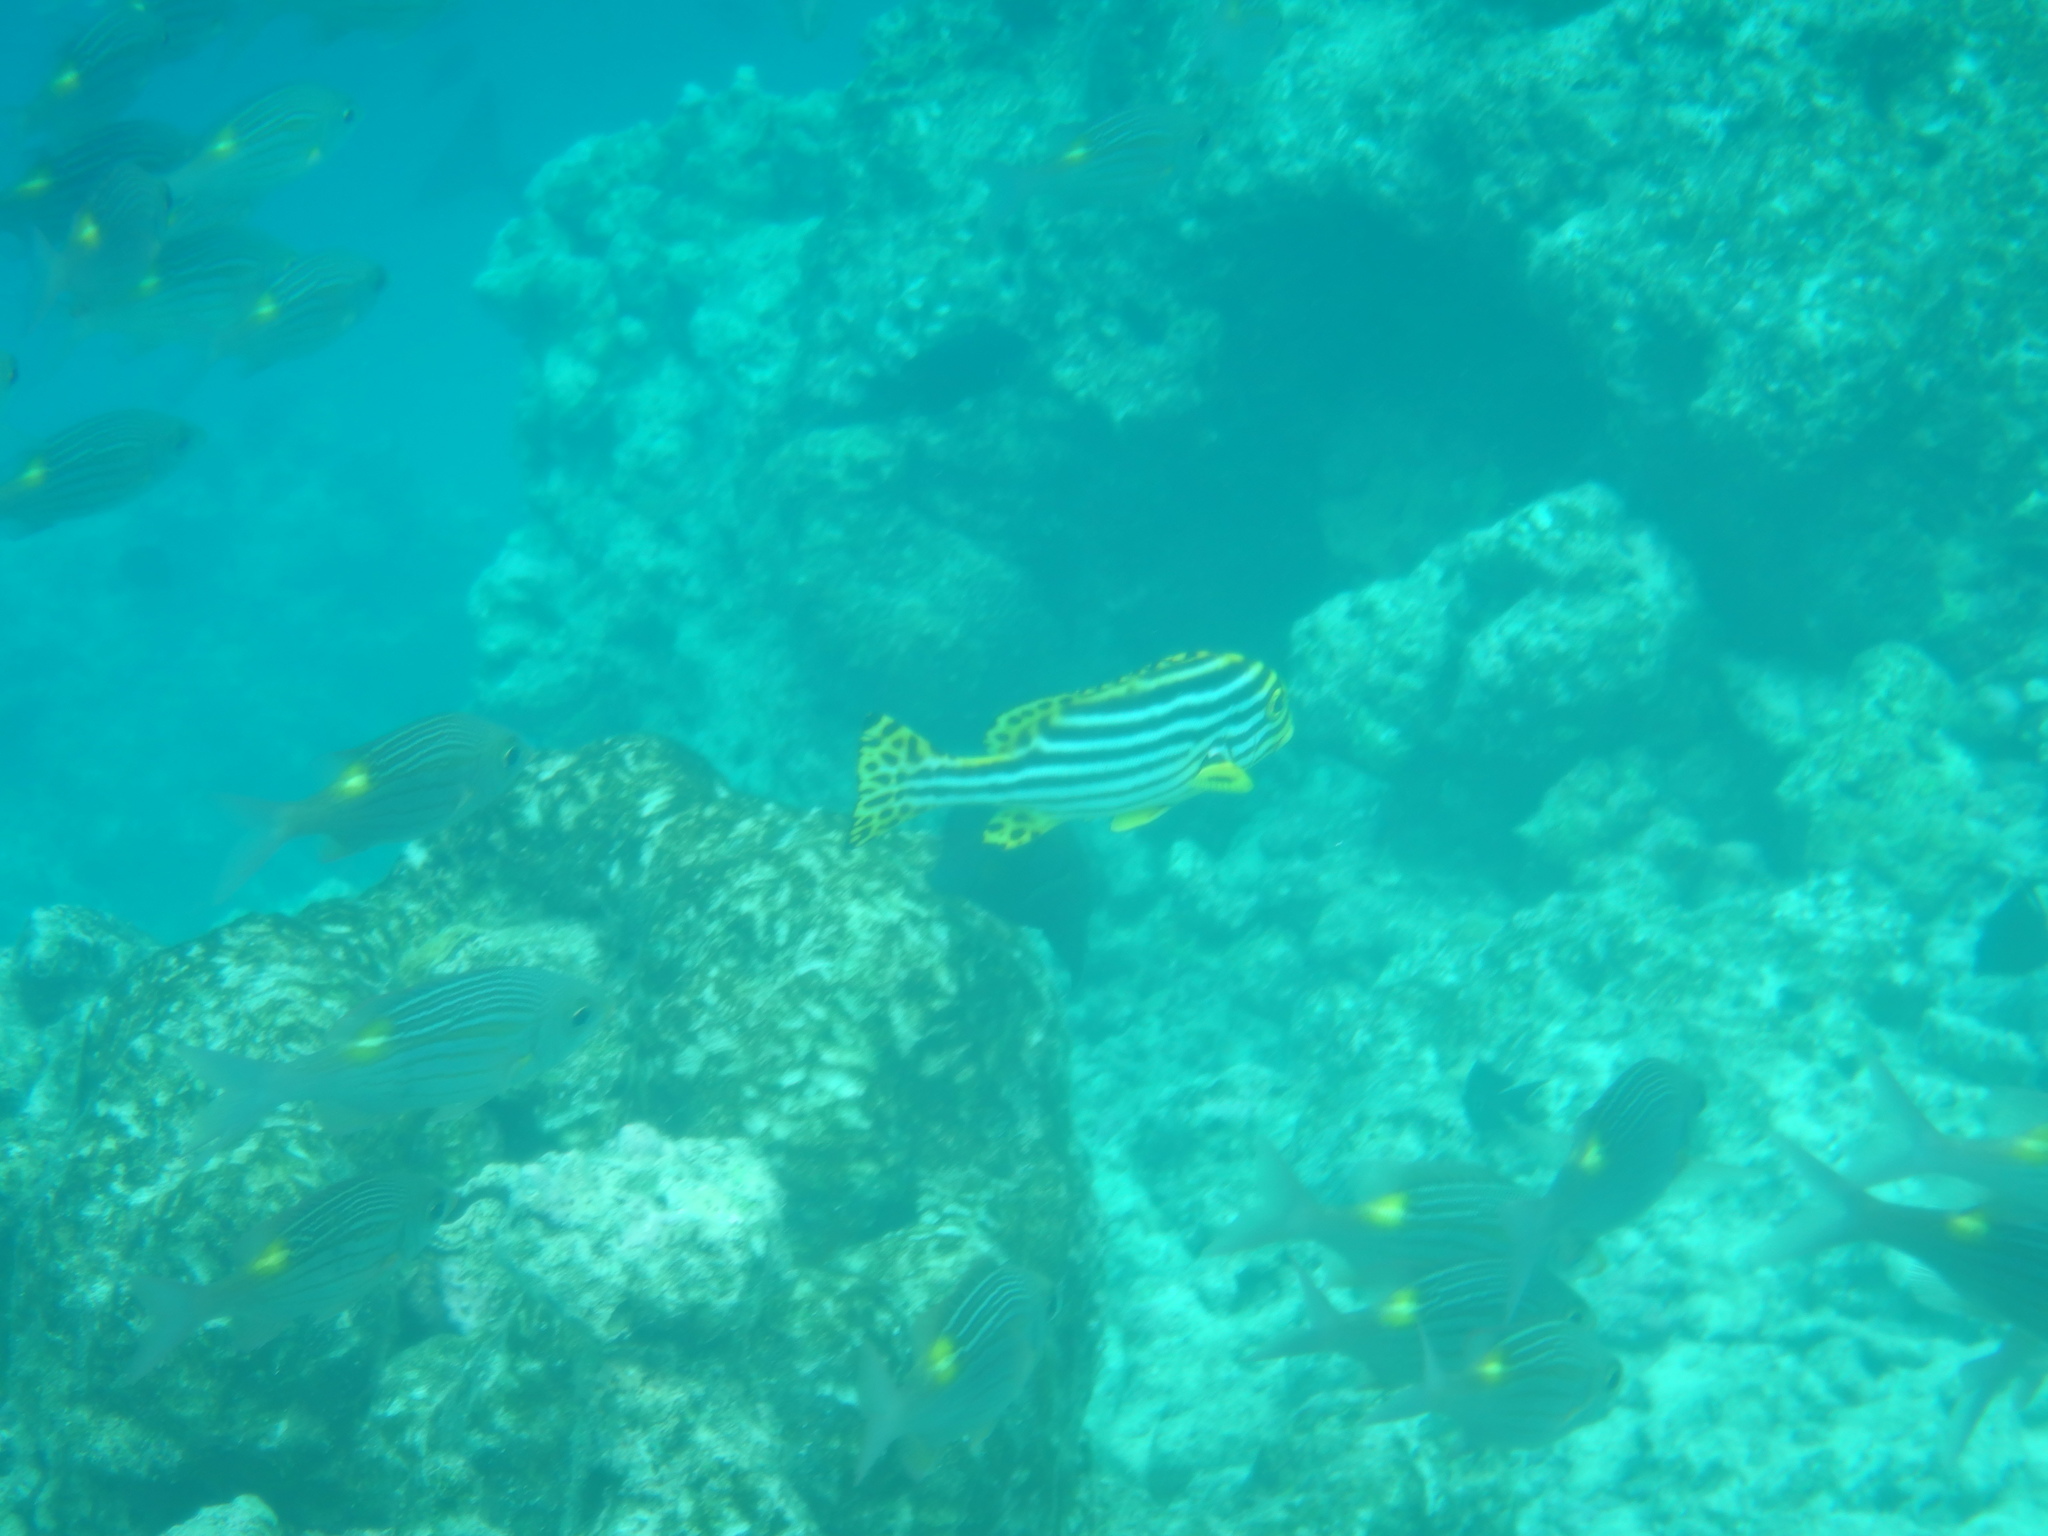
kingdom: Animalia
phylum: Chordata
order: Perciformes
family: Haemulidae
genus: Plectorhinchus
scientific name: Plectorhinchus vittatus
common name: Oriental sweetlips
